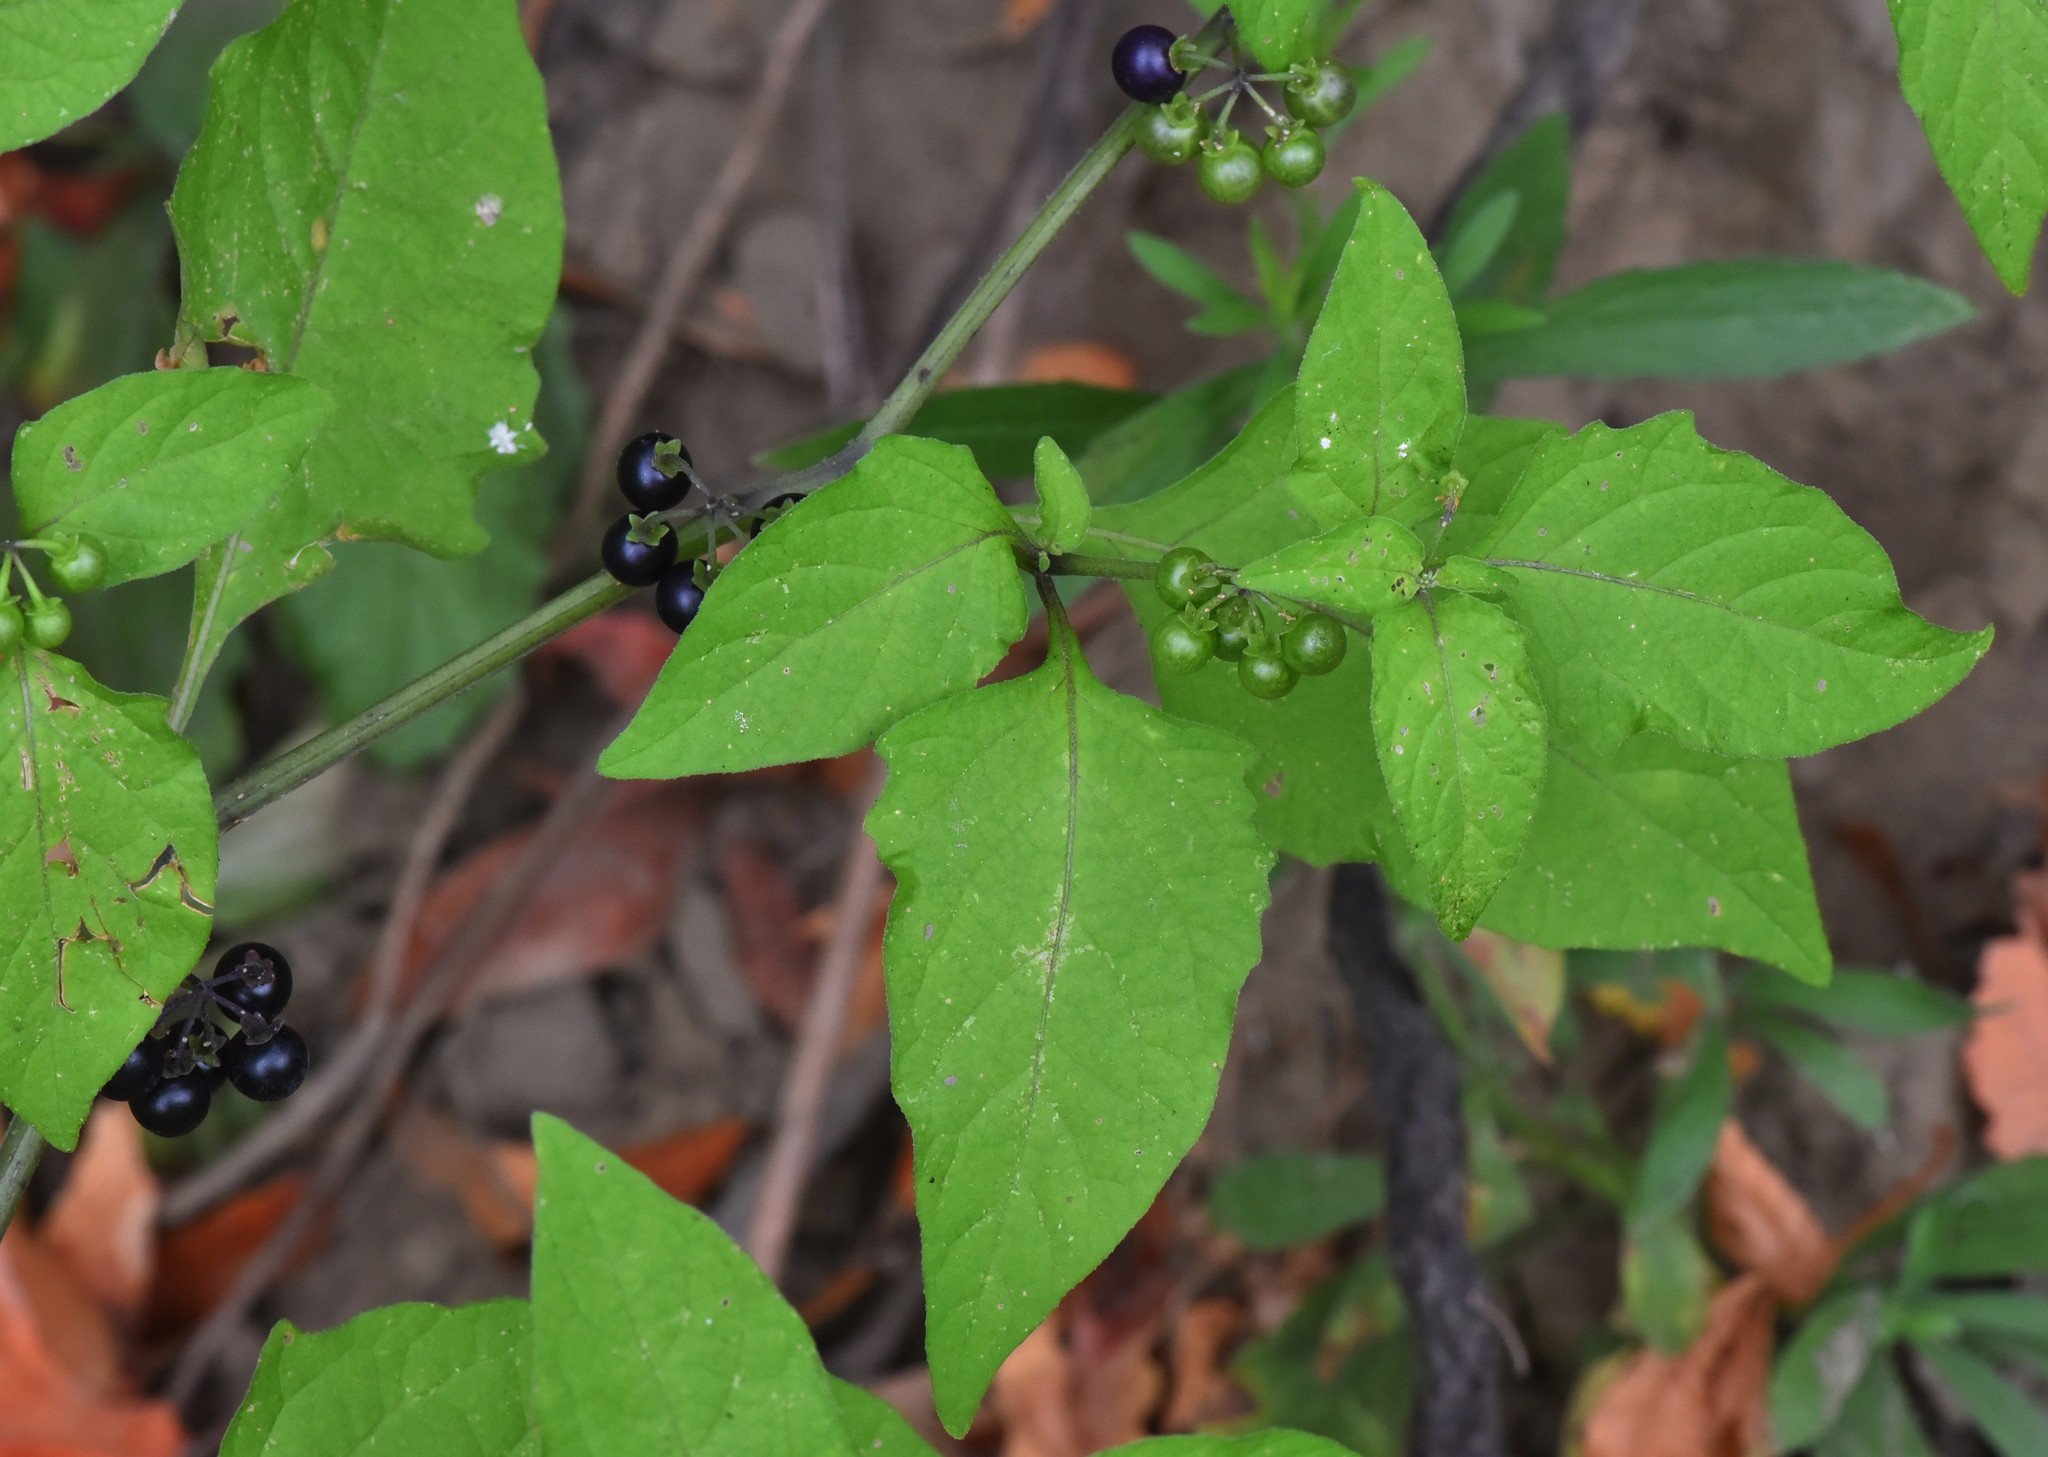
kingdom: Plantae
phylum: Tracheophyta
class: Magnoliopsida
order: Solanales
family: Solanaceae
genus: Solanum
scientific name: Solanum americanum
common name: American black nightshade
